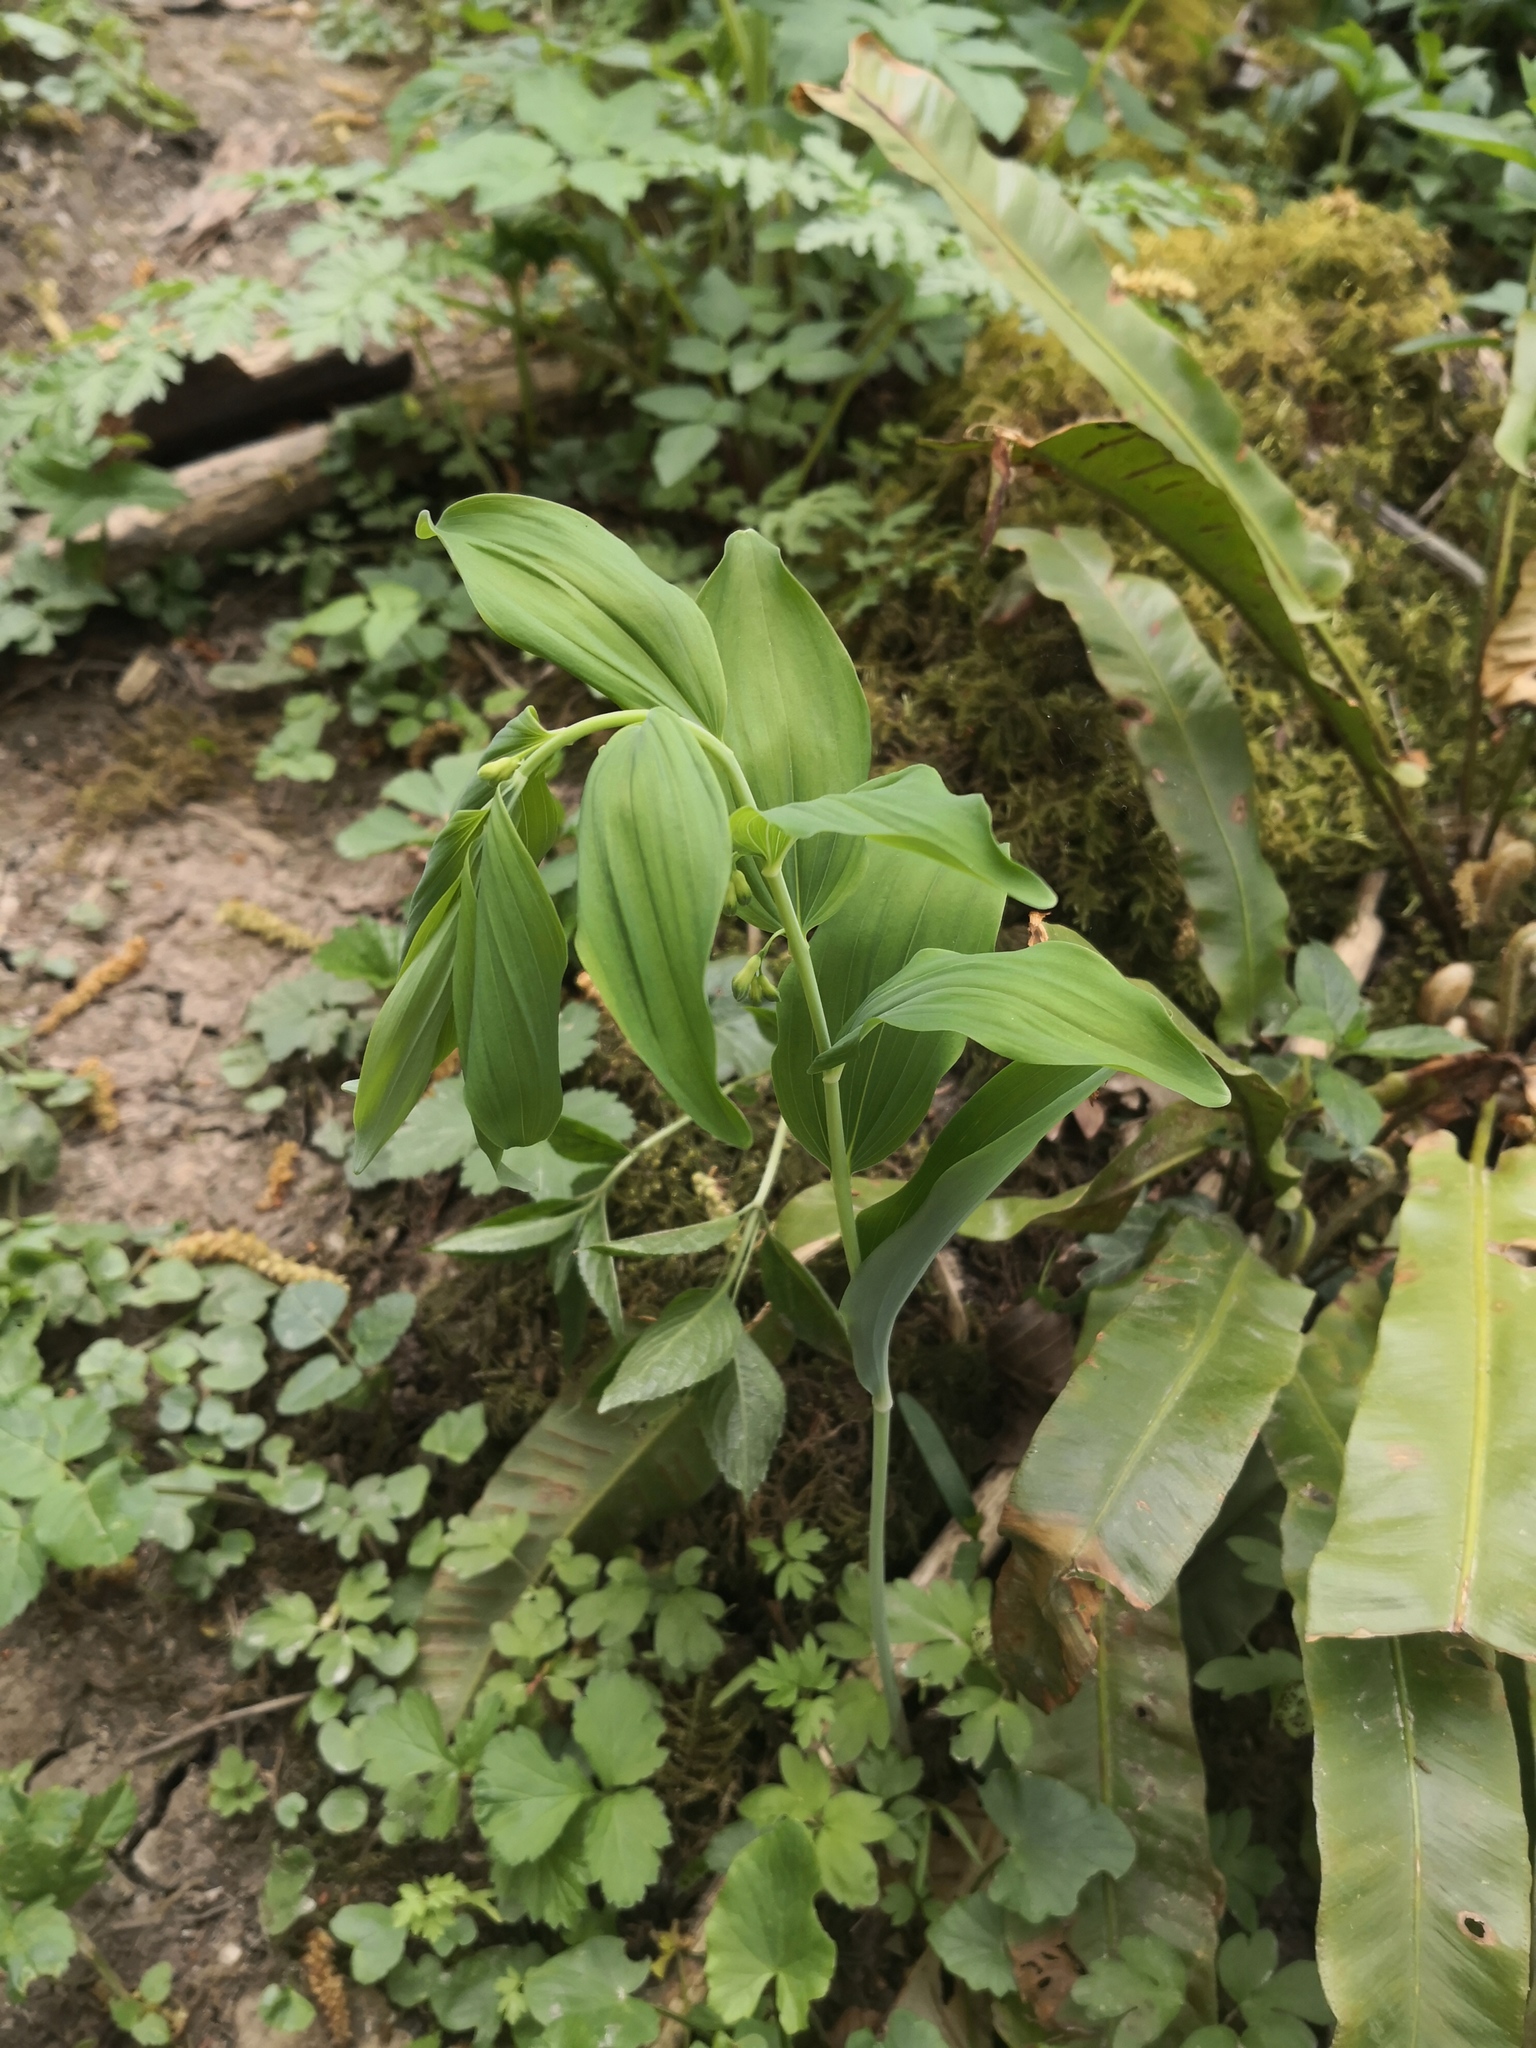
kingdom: Plantae
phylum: Tracheophyta
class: Liliopsida
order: Asparagales
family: Asparagaceae
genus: Polygonatum
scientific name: Polygonatum multiflorum
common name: Solomon's-seal
